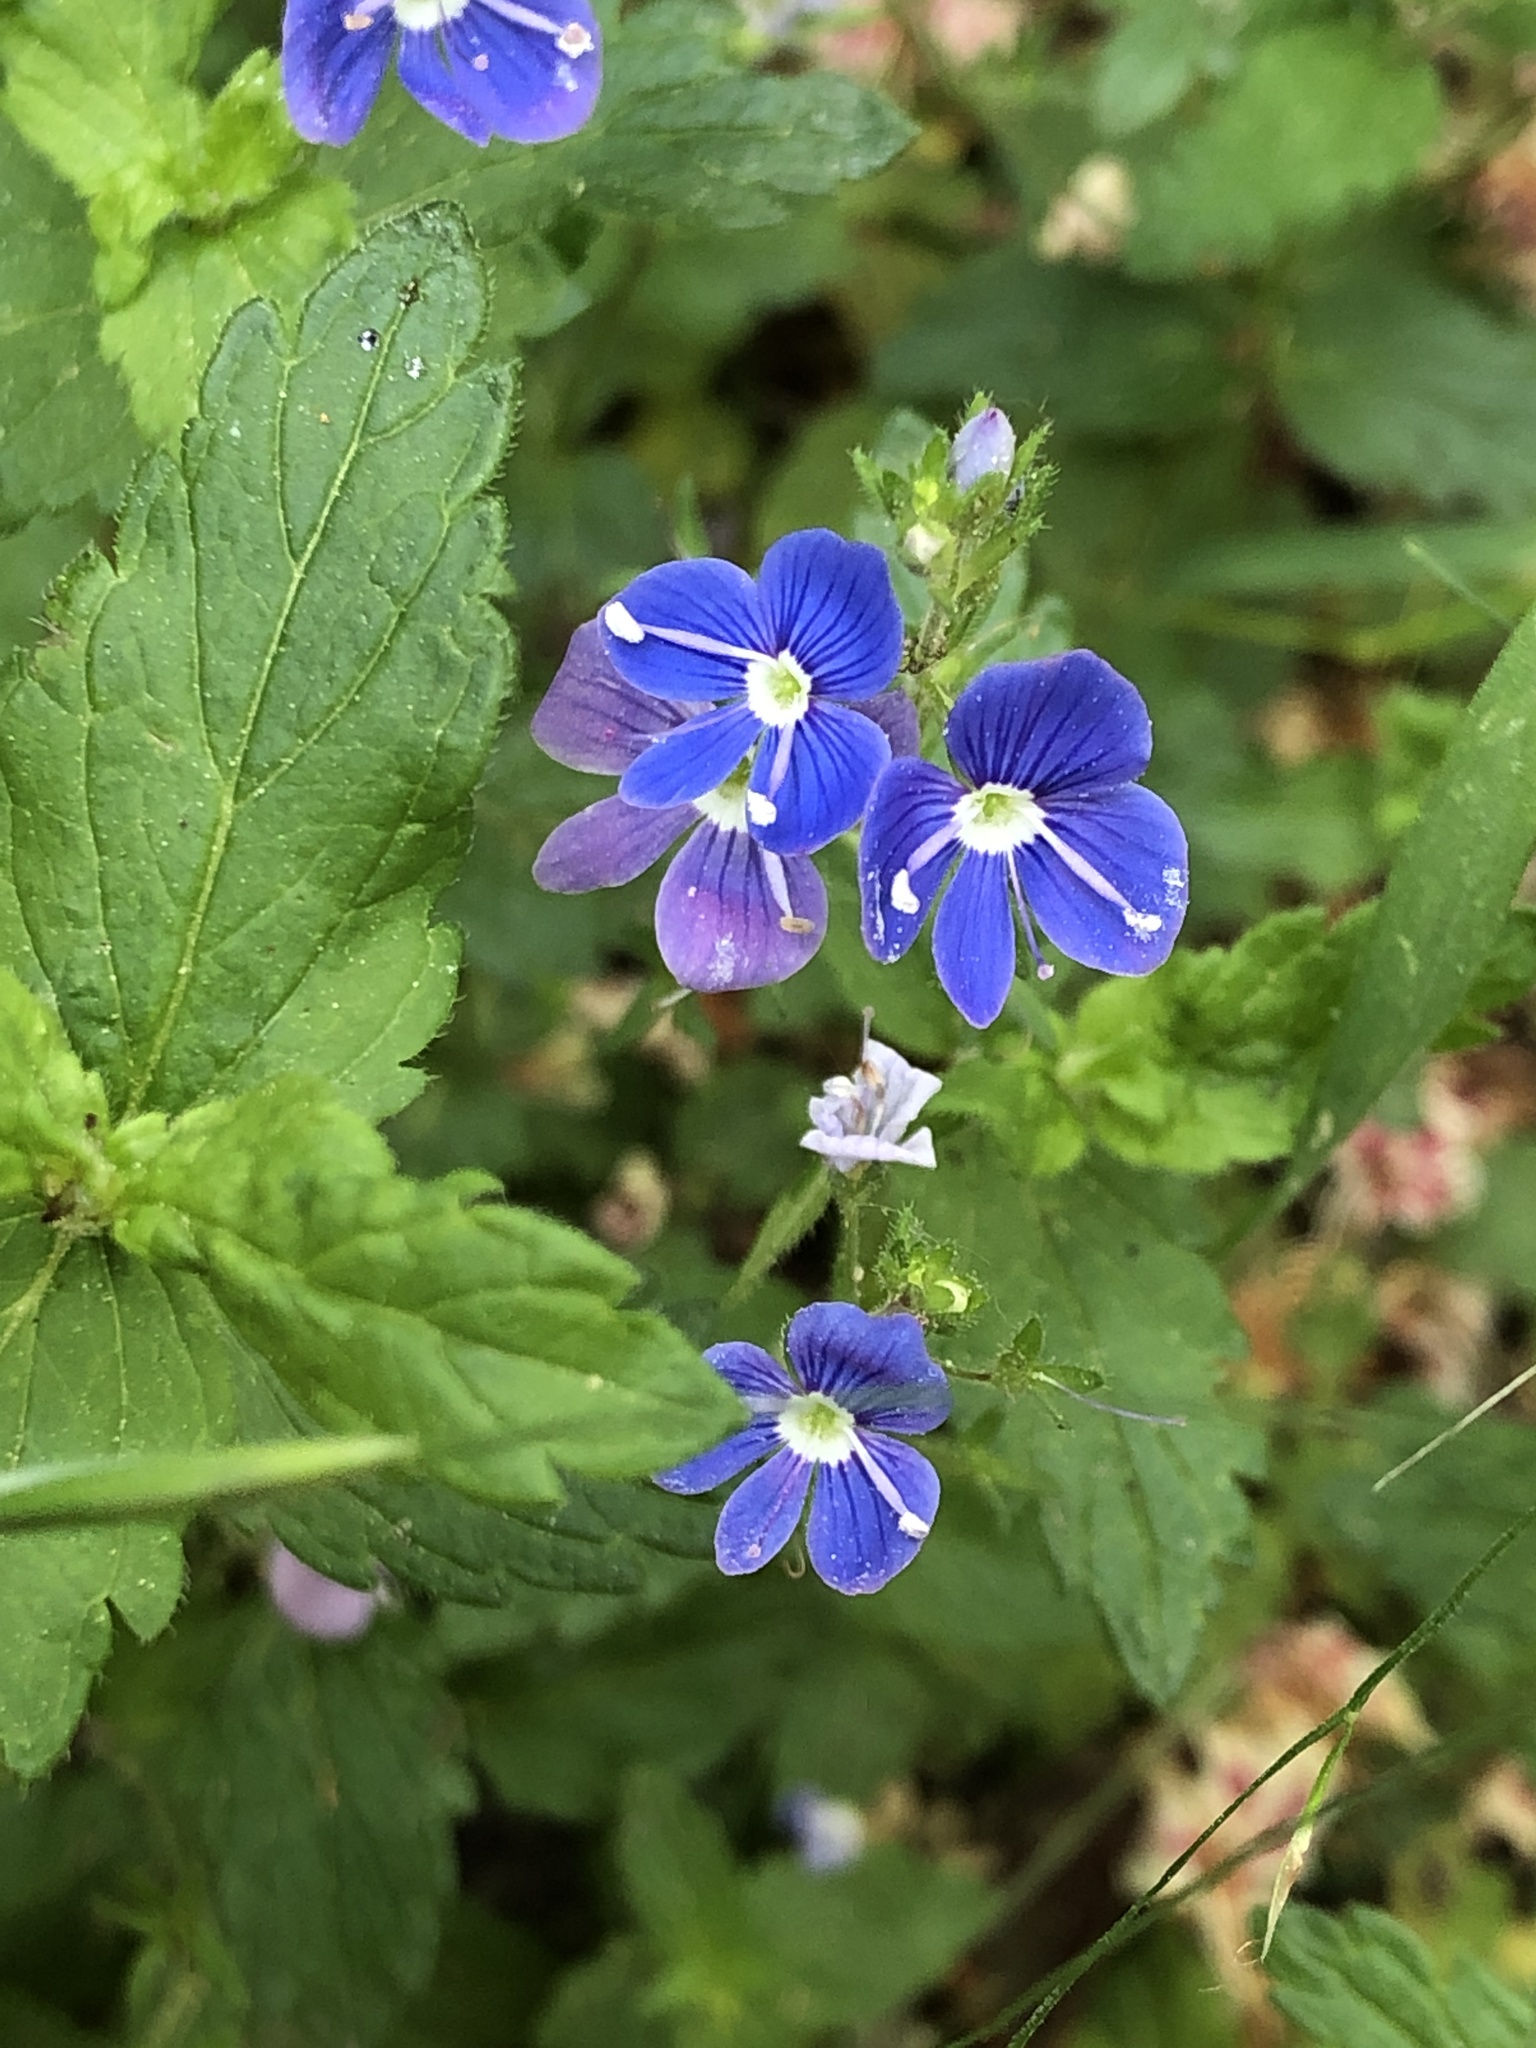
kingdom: Plantae
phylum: Tracheophyta
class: Magnoliopsida
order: Lamiales
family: Plantaginaceae
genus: Veronica
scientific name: Veronica chamaedrys
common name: Germander speedwell
